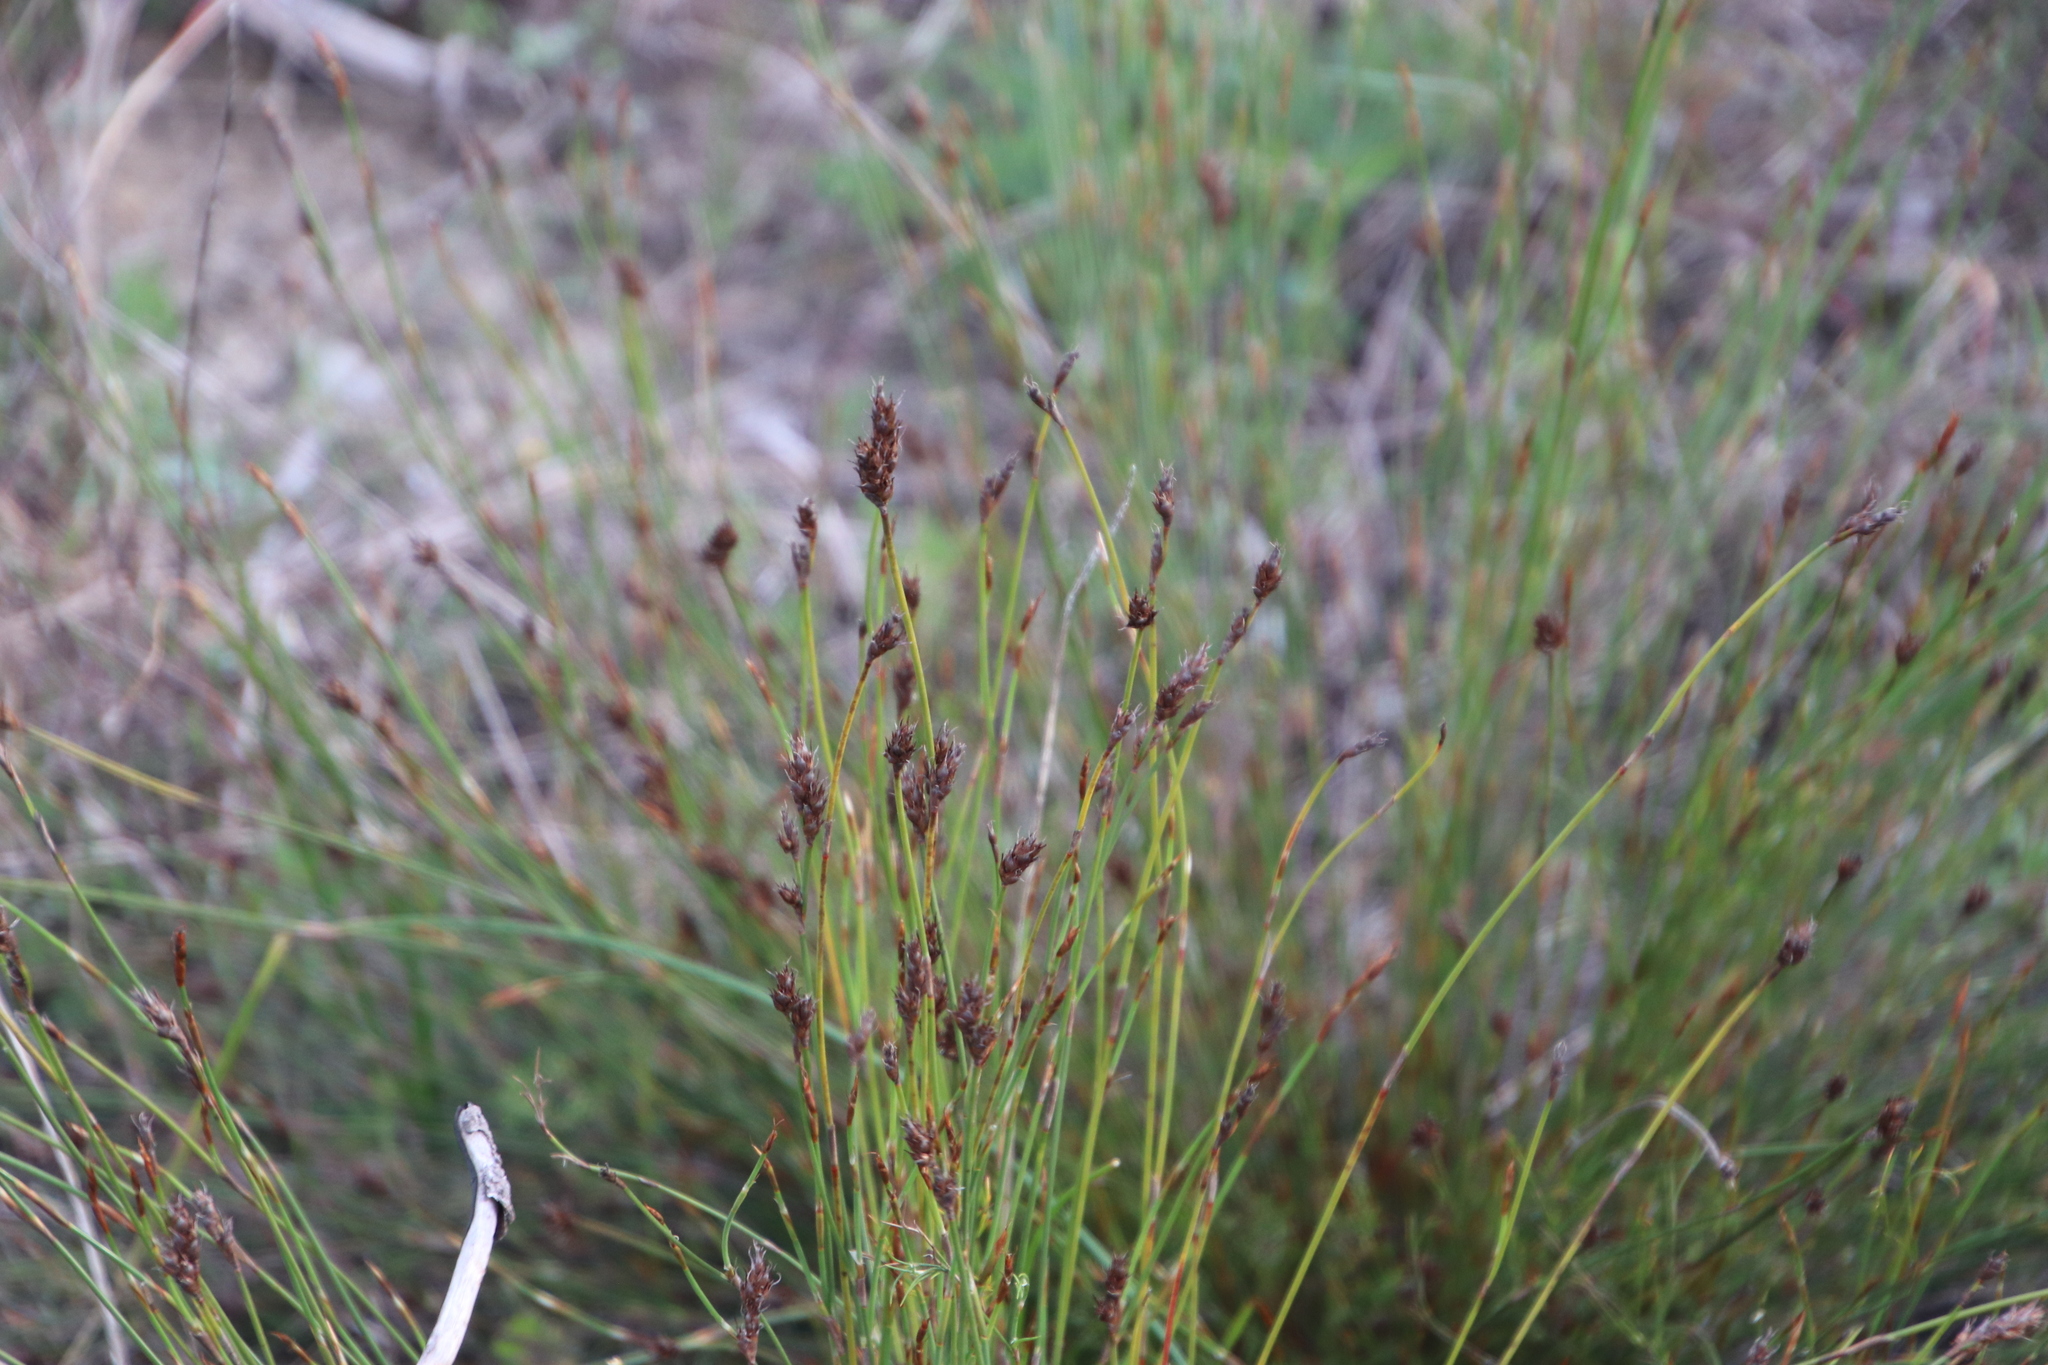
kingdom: Plantae
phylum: Tracheophyta
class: Liliopsida
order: Poales
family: Restionaceae
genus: Restio
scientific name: Restio capensis
